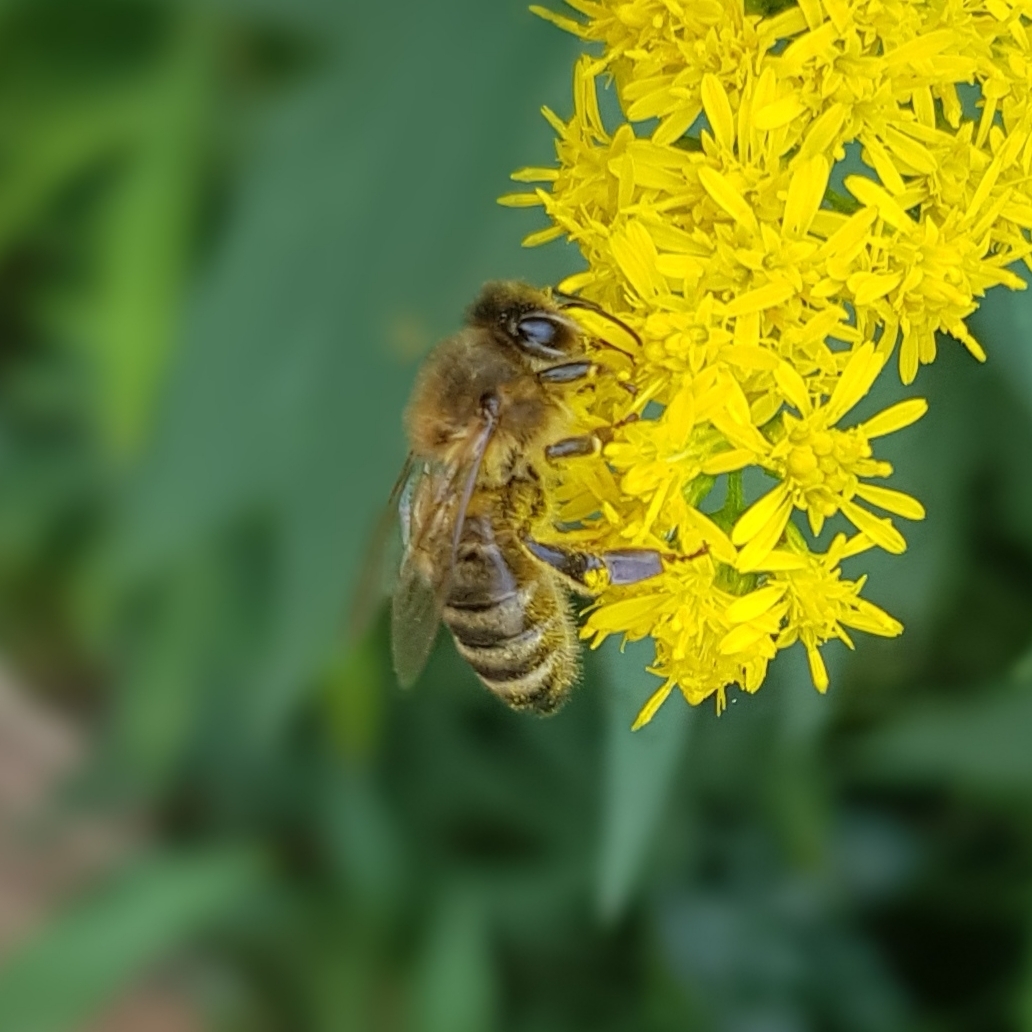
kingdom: Animalia
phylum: Arthropoda
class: Insecta
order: Hymenoptera
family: Apidae
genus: Apis
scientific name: Apis mellifera
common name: Honey bee
